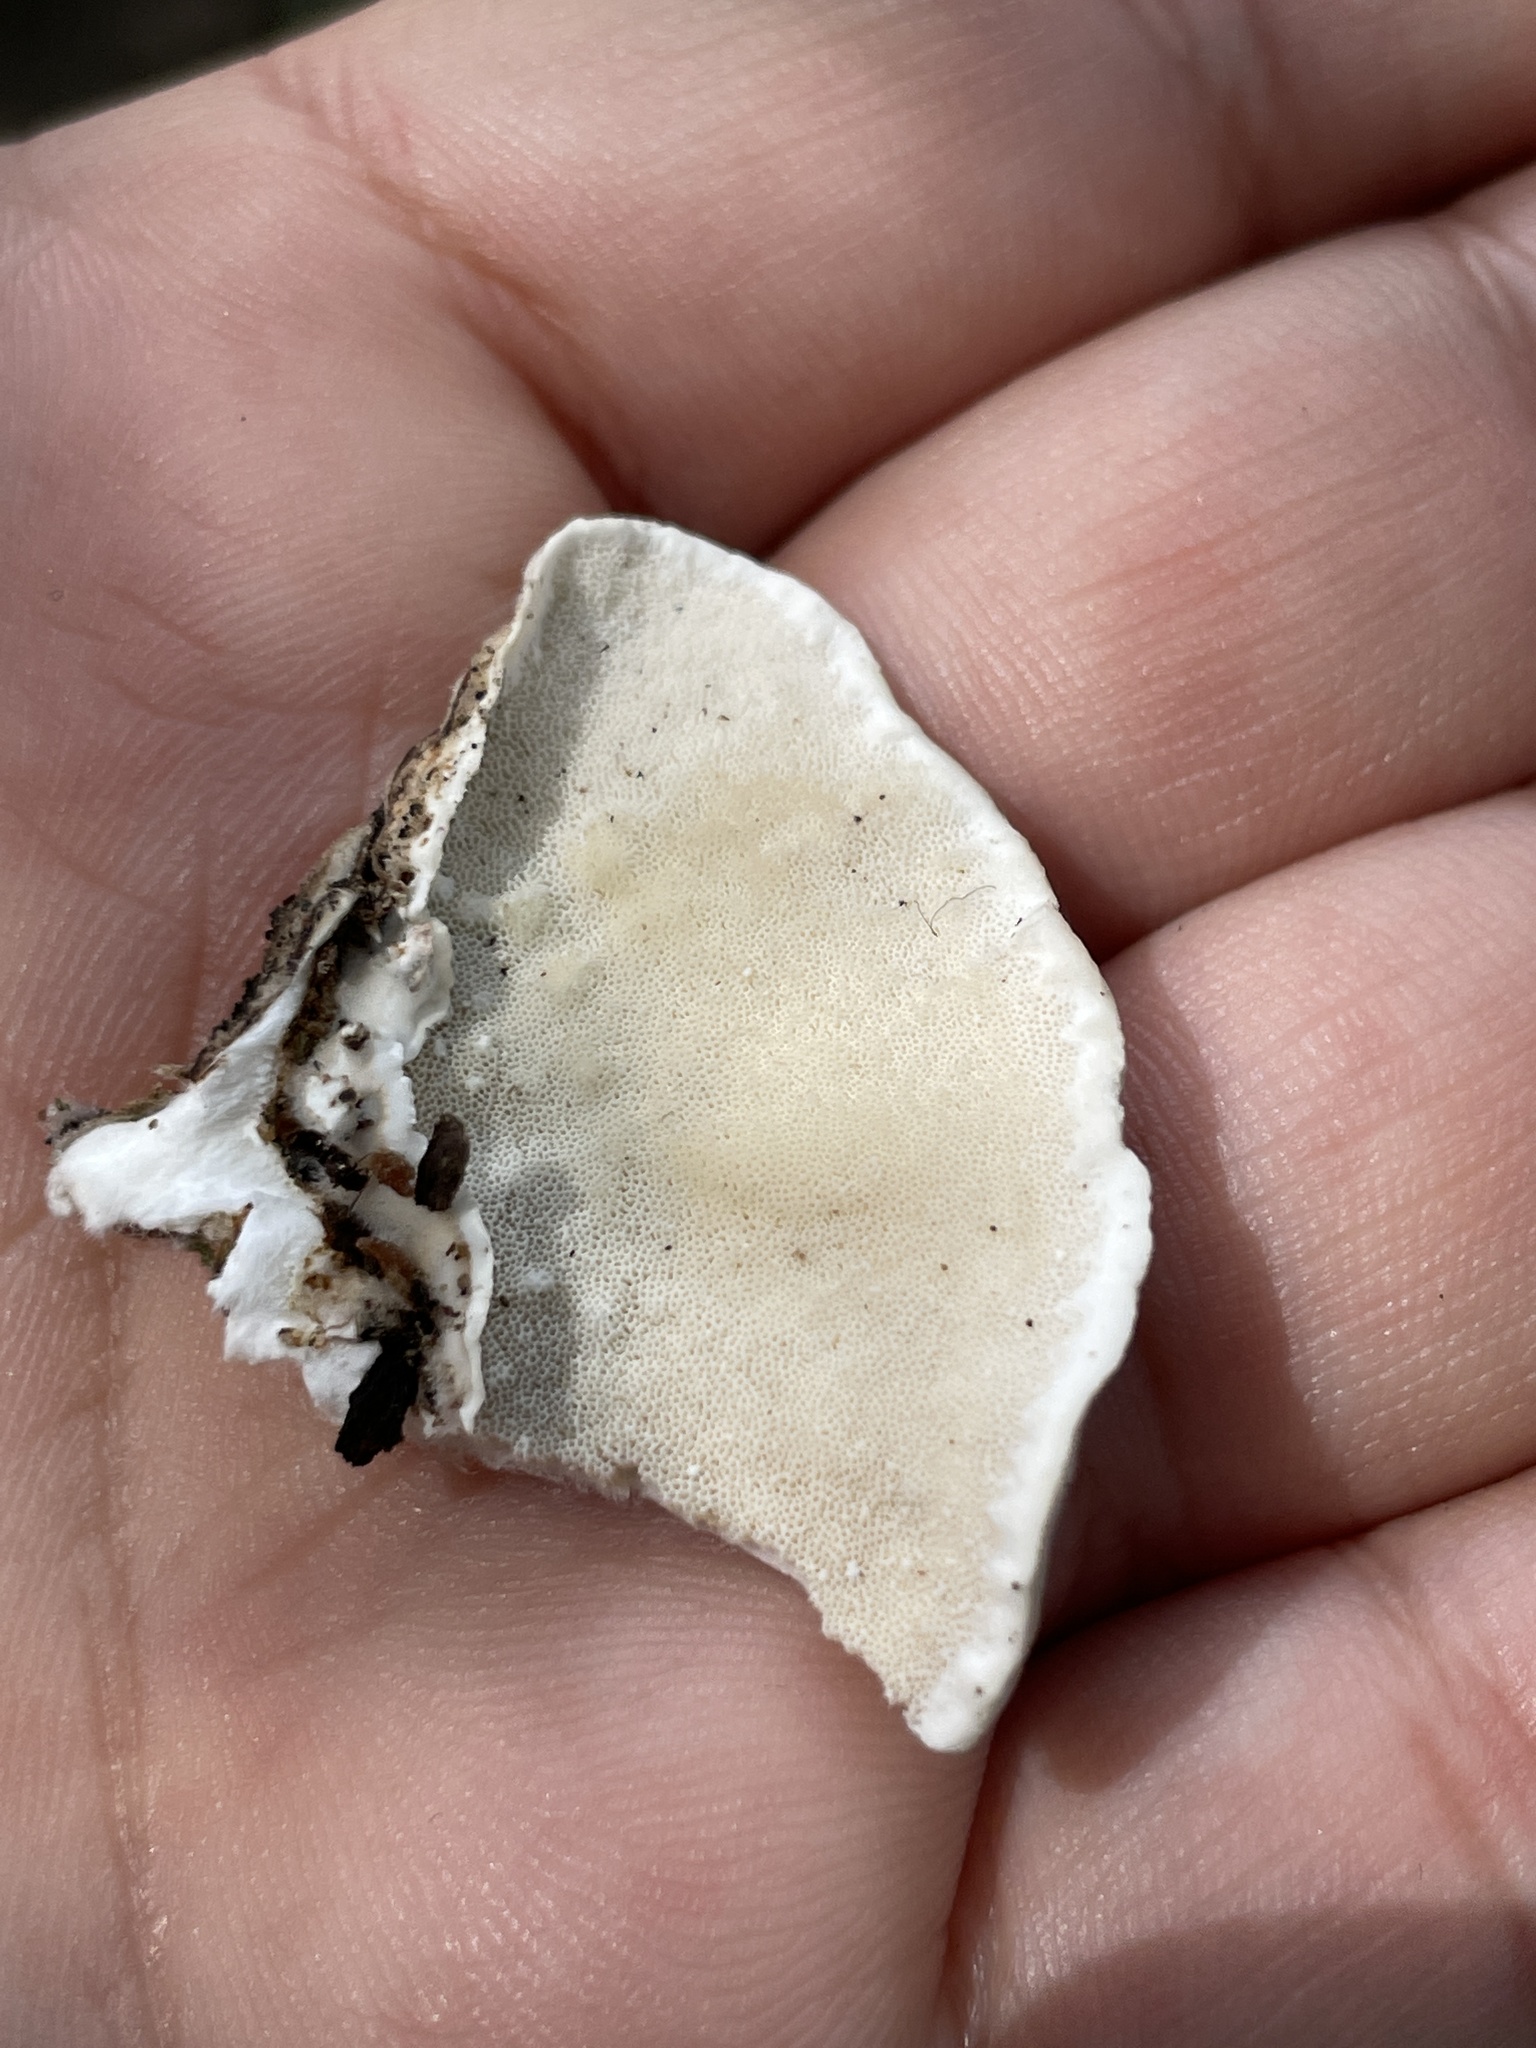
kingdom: Fungi
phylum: Basidiomycota
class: Agaricomycetes
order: Polyporales
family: Polyporaceae
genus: Trametes
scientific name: Trametes versicolor
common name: Turkeytail
